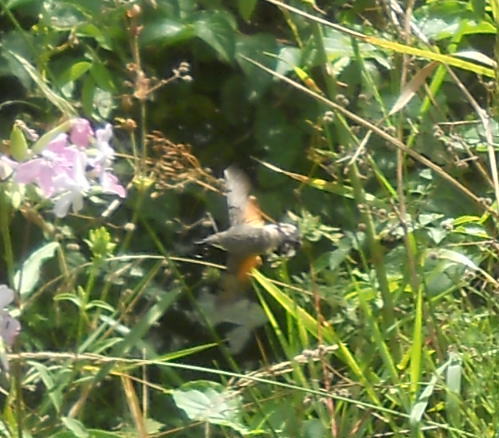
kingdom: Plantae
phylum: Tracheophyta
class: Magnoliopsida
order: Caryophyllales
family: Caryophyllaceae
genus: Saponaria
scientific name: Saponaria officinalis
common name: Soapwort
